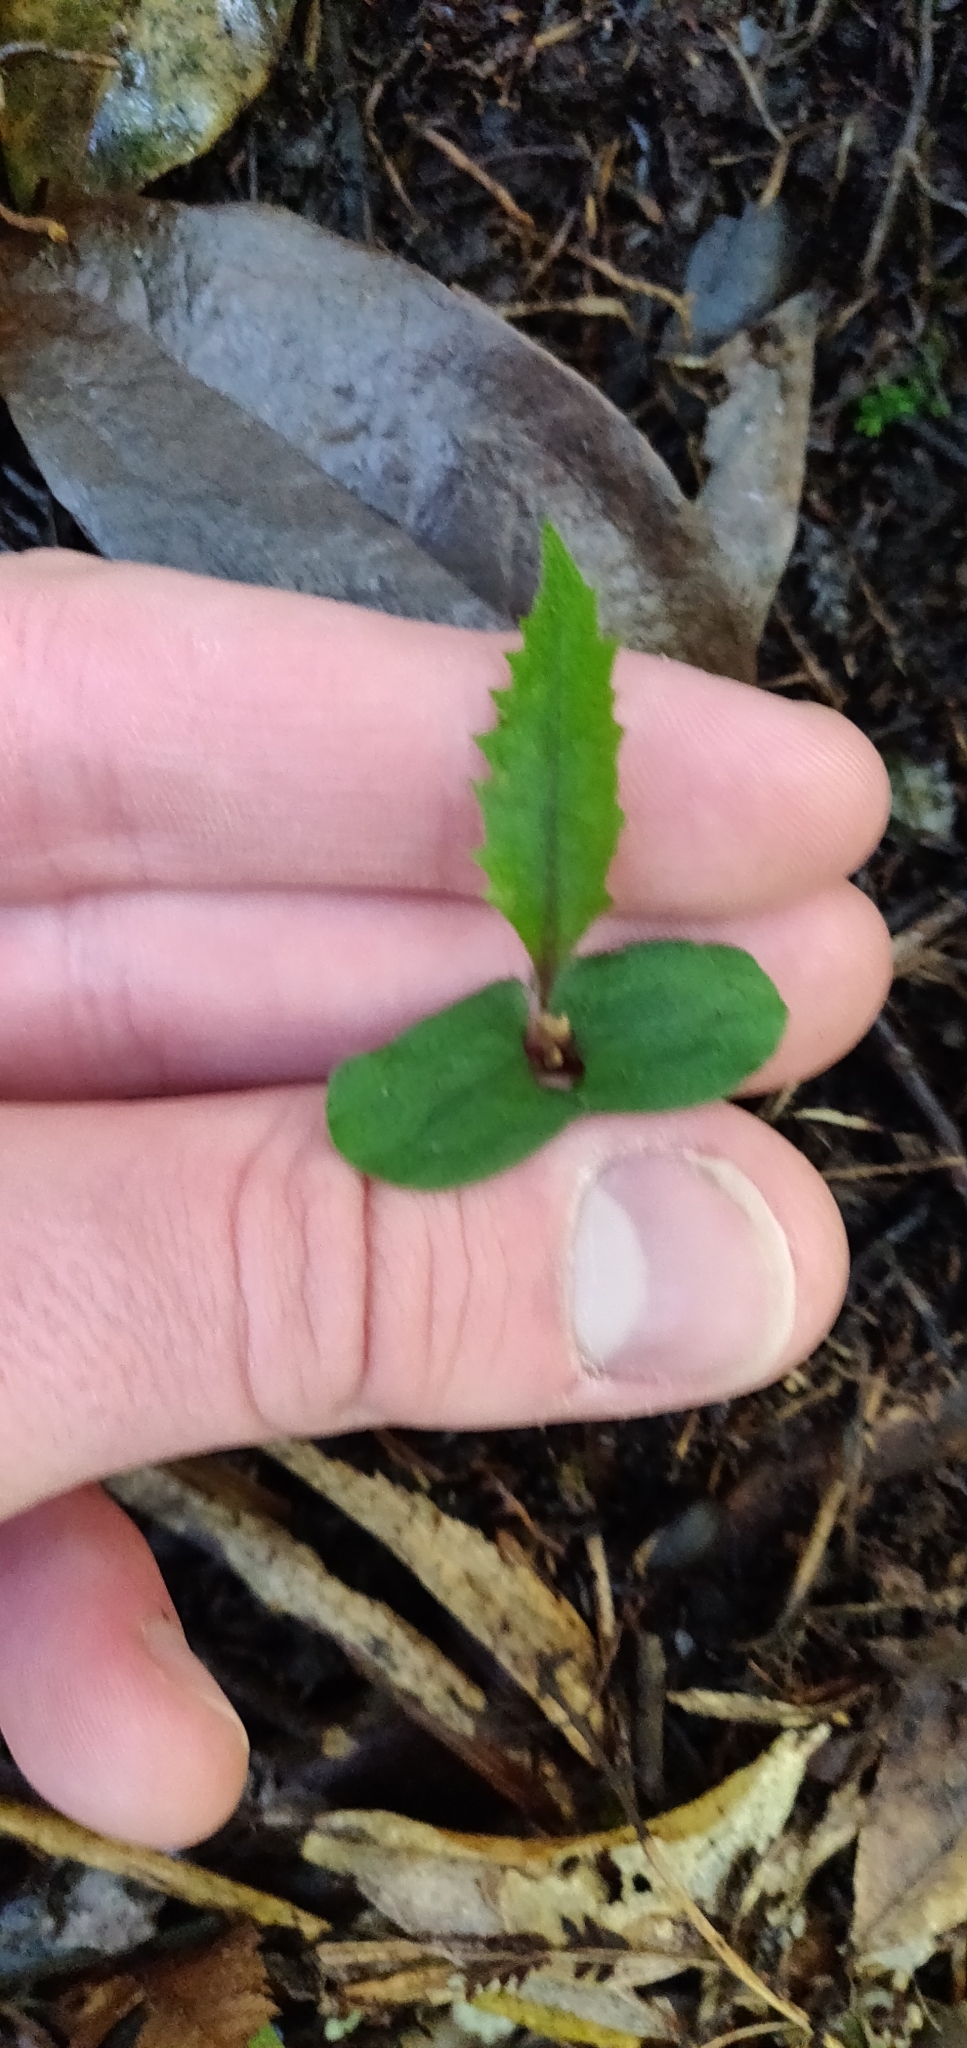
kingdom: Plantae
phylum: Tracheophyta
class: Magnoliopsida
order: Proteales
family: Proteaceae
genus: Knightia
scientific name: Knightia excelsa
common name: New zealand-honeysuckle
